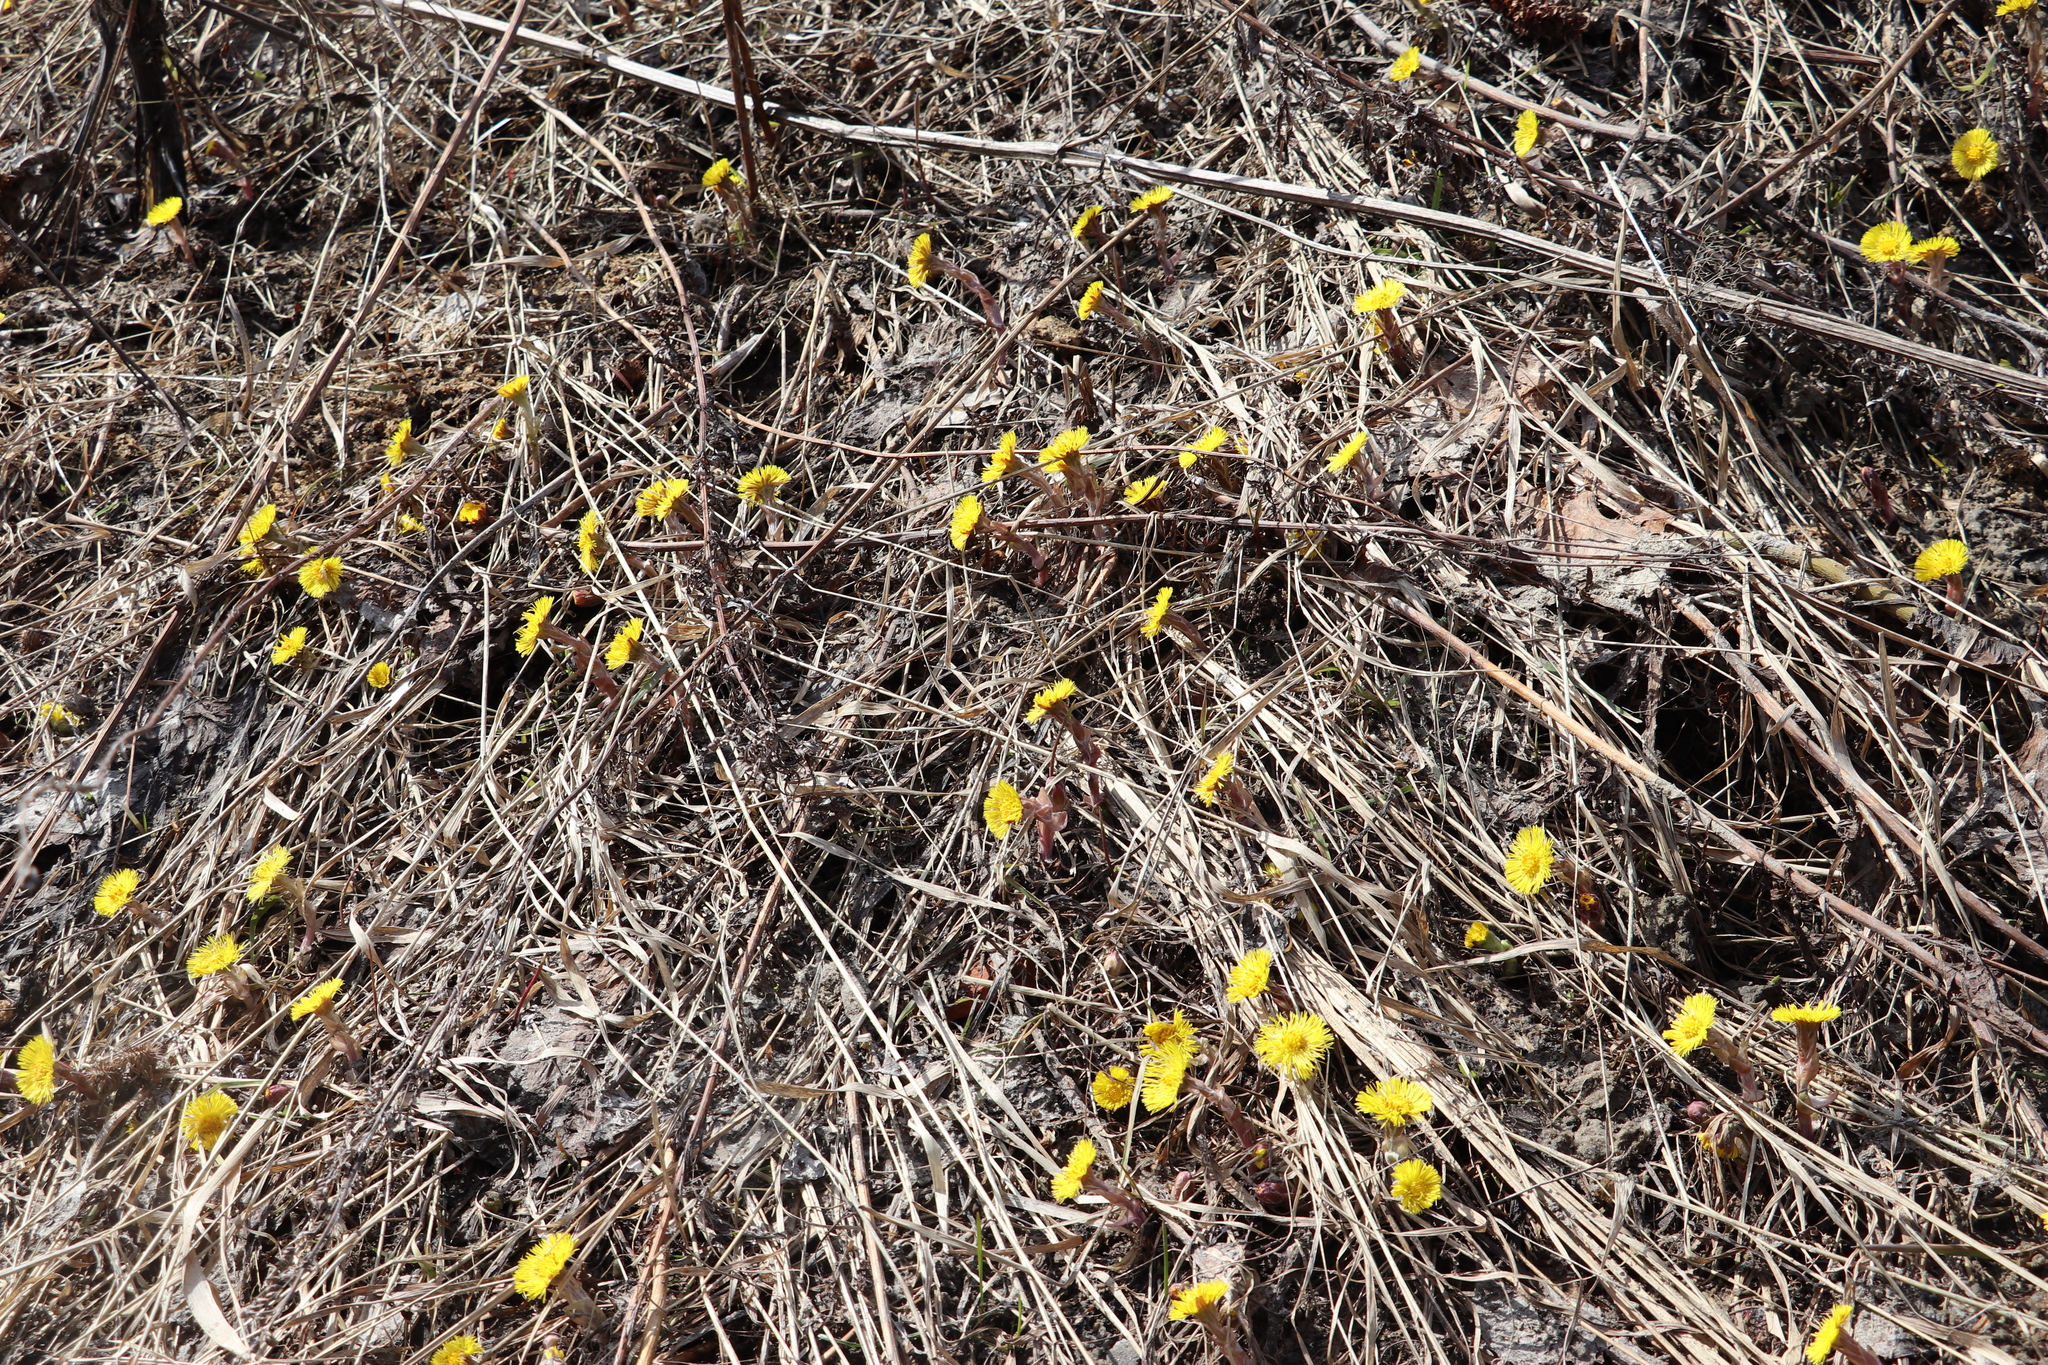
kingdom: Plantae
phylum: Tracheophyta
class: Magnoliopsida
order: Asterales
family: Asteraceae
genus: Tussilago
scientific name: Tussilago farfara
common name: Coltsfoot
